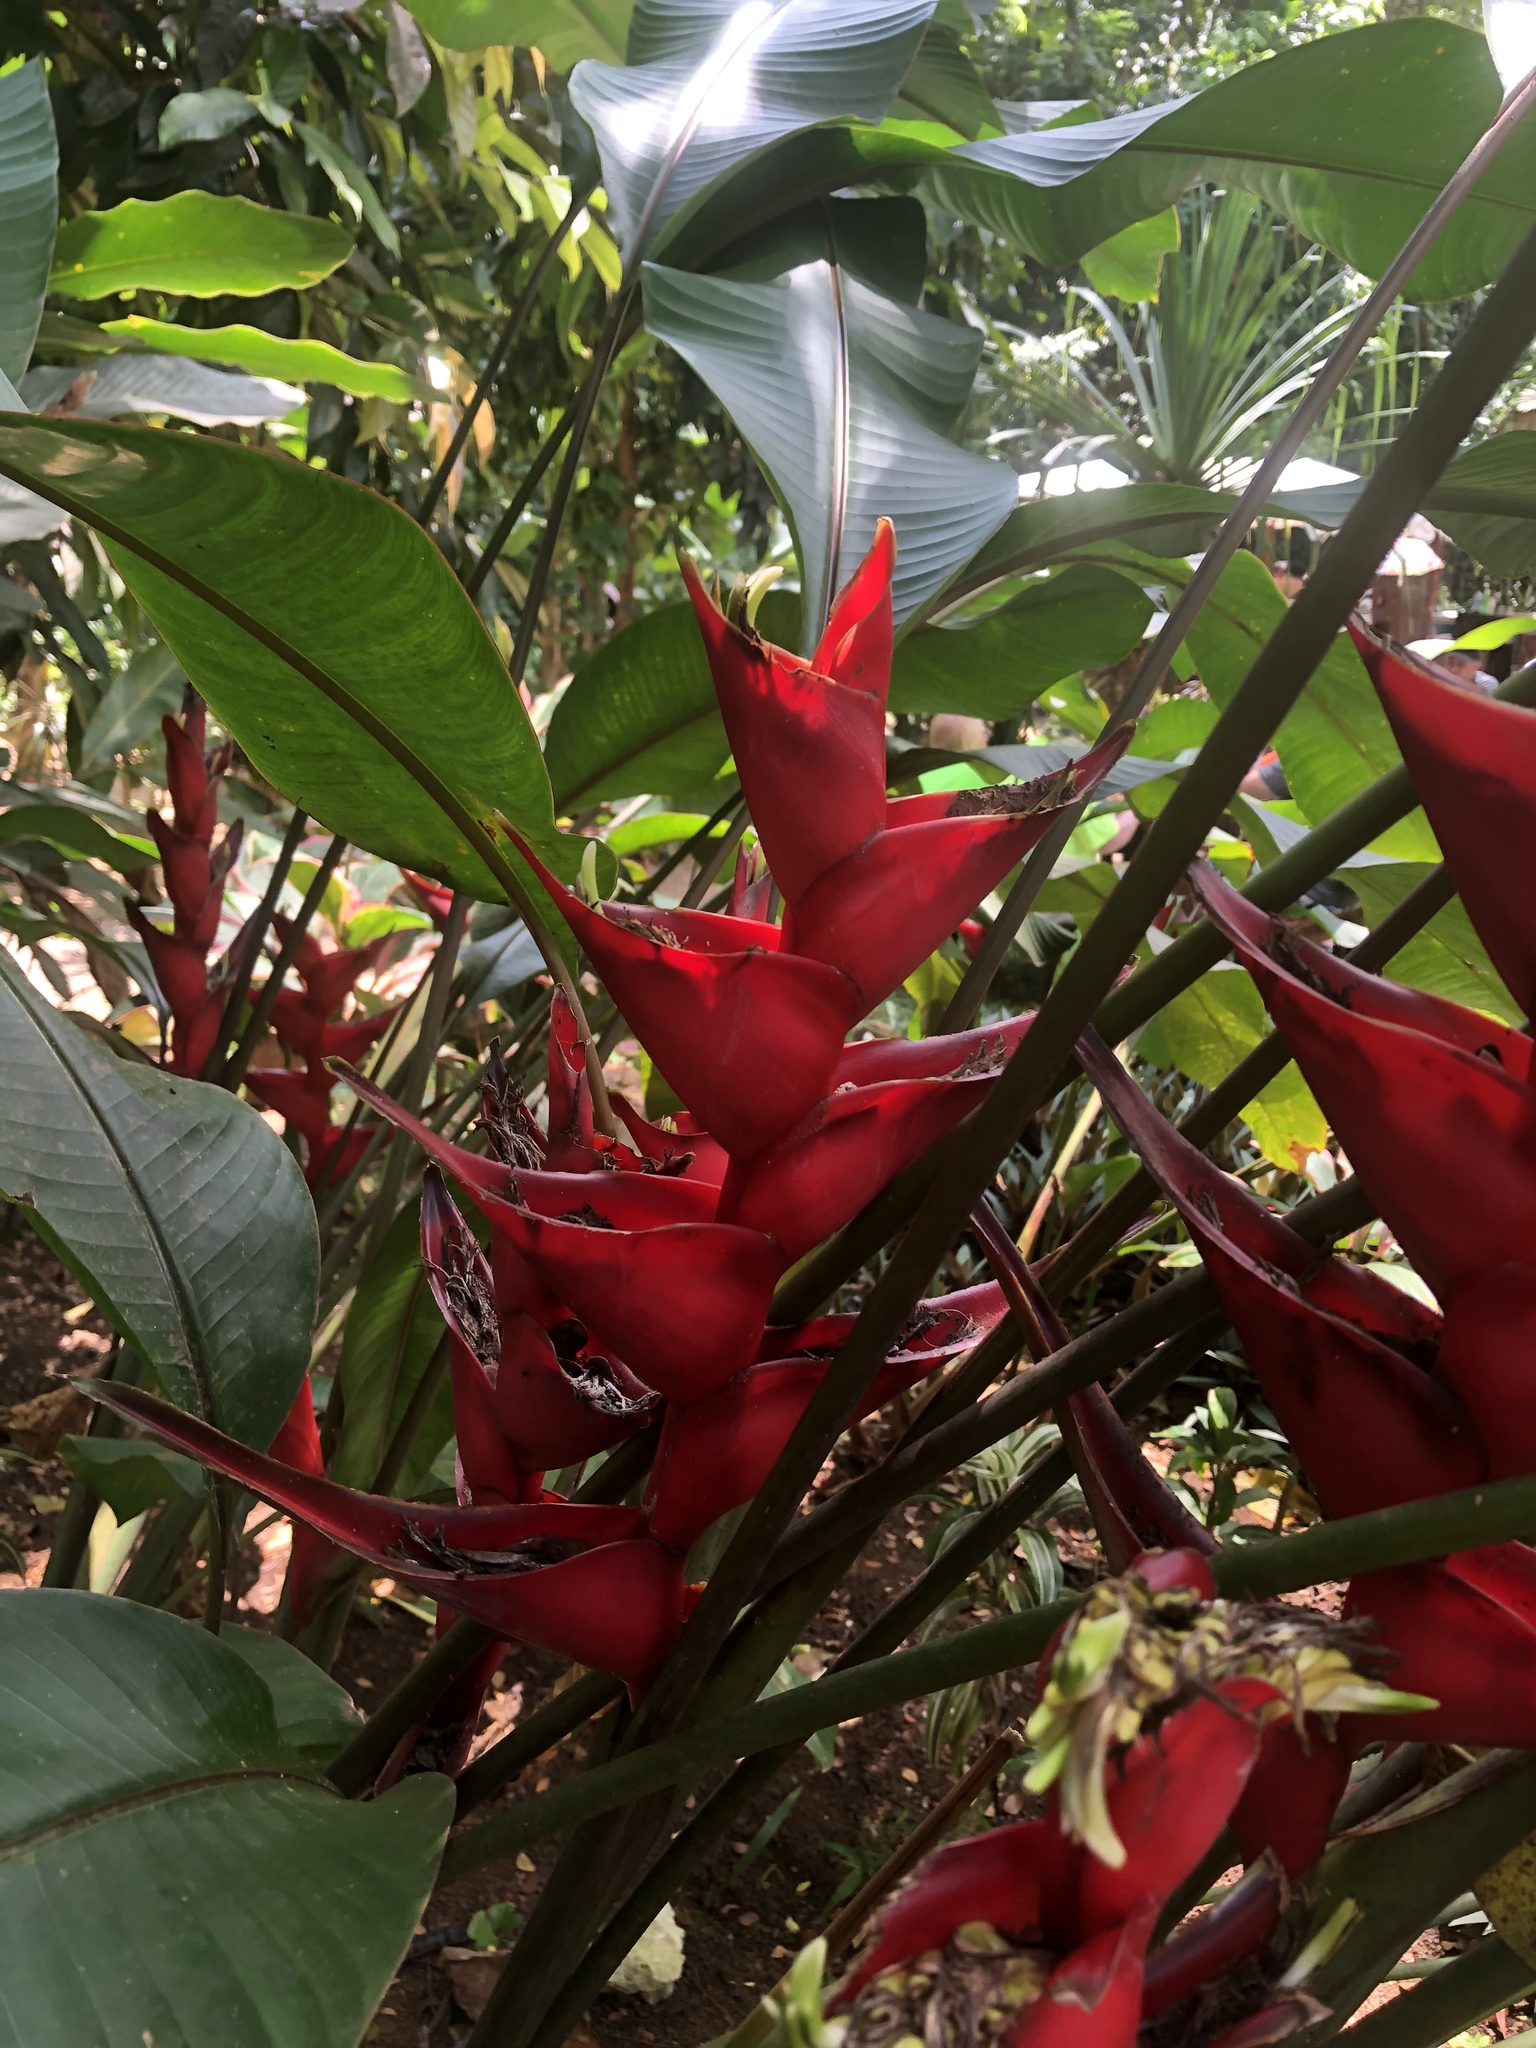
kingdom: Plantae
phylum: Tracheophyta
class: Liliopsida
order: Zingiberales
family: Heliconiaceae
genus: Heliconia
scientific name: Heliconia caribaea
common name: Wild plantain
